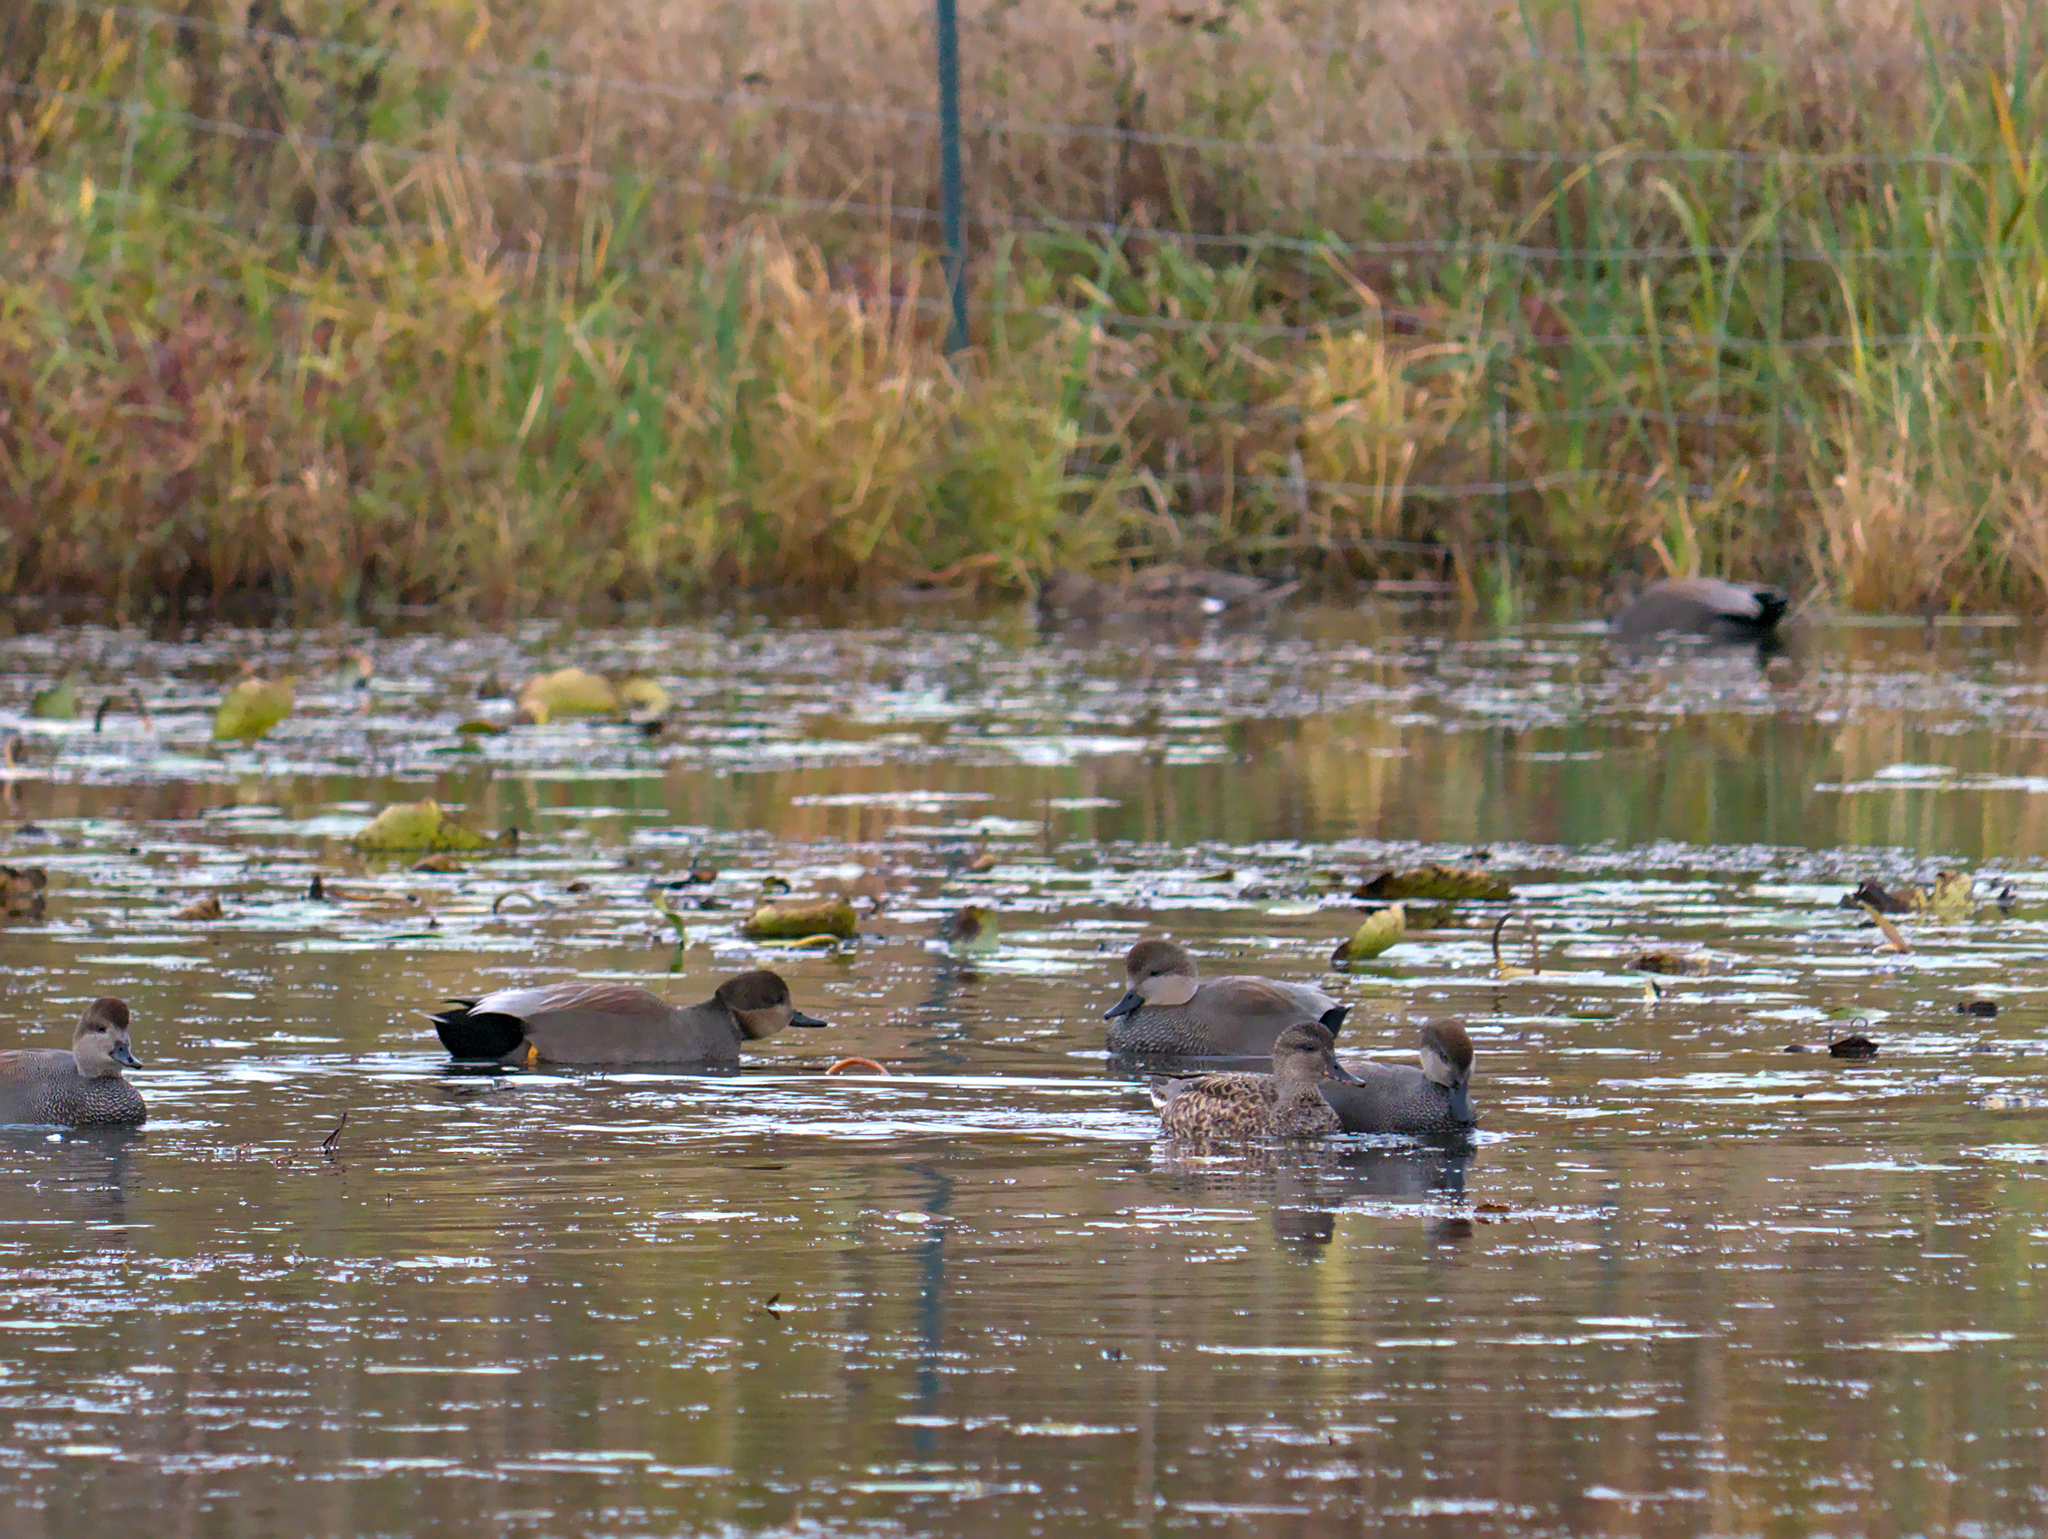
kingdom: Animalia
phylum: Chordata
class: Aves
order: Anseriformes
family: Anatidae
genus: Mareca
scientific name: Mareca strepera
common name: Gadwall
